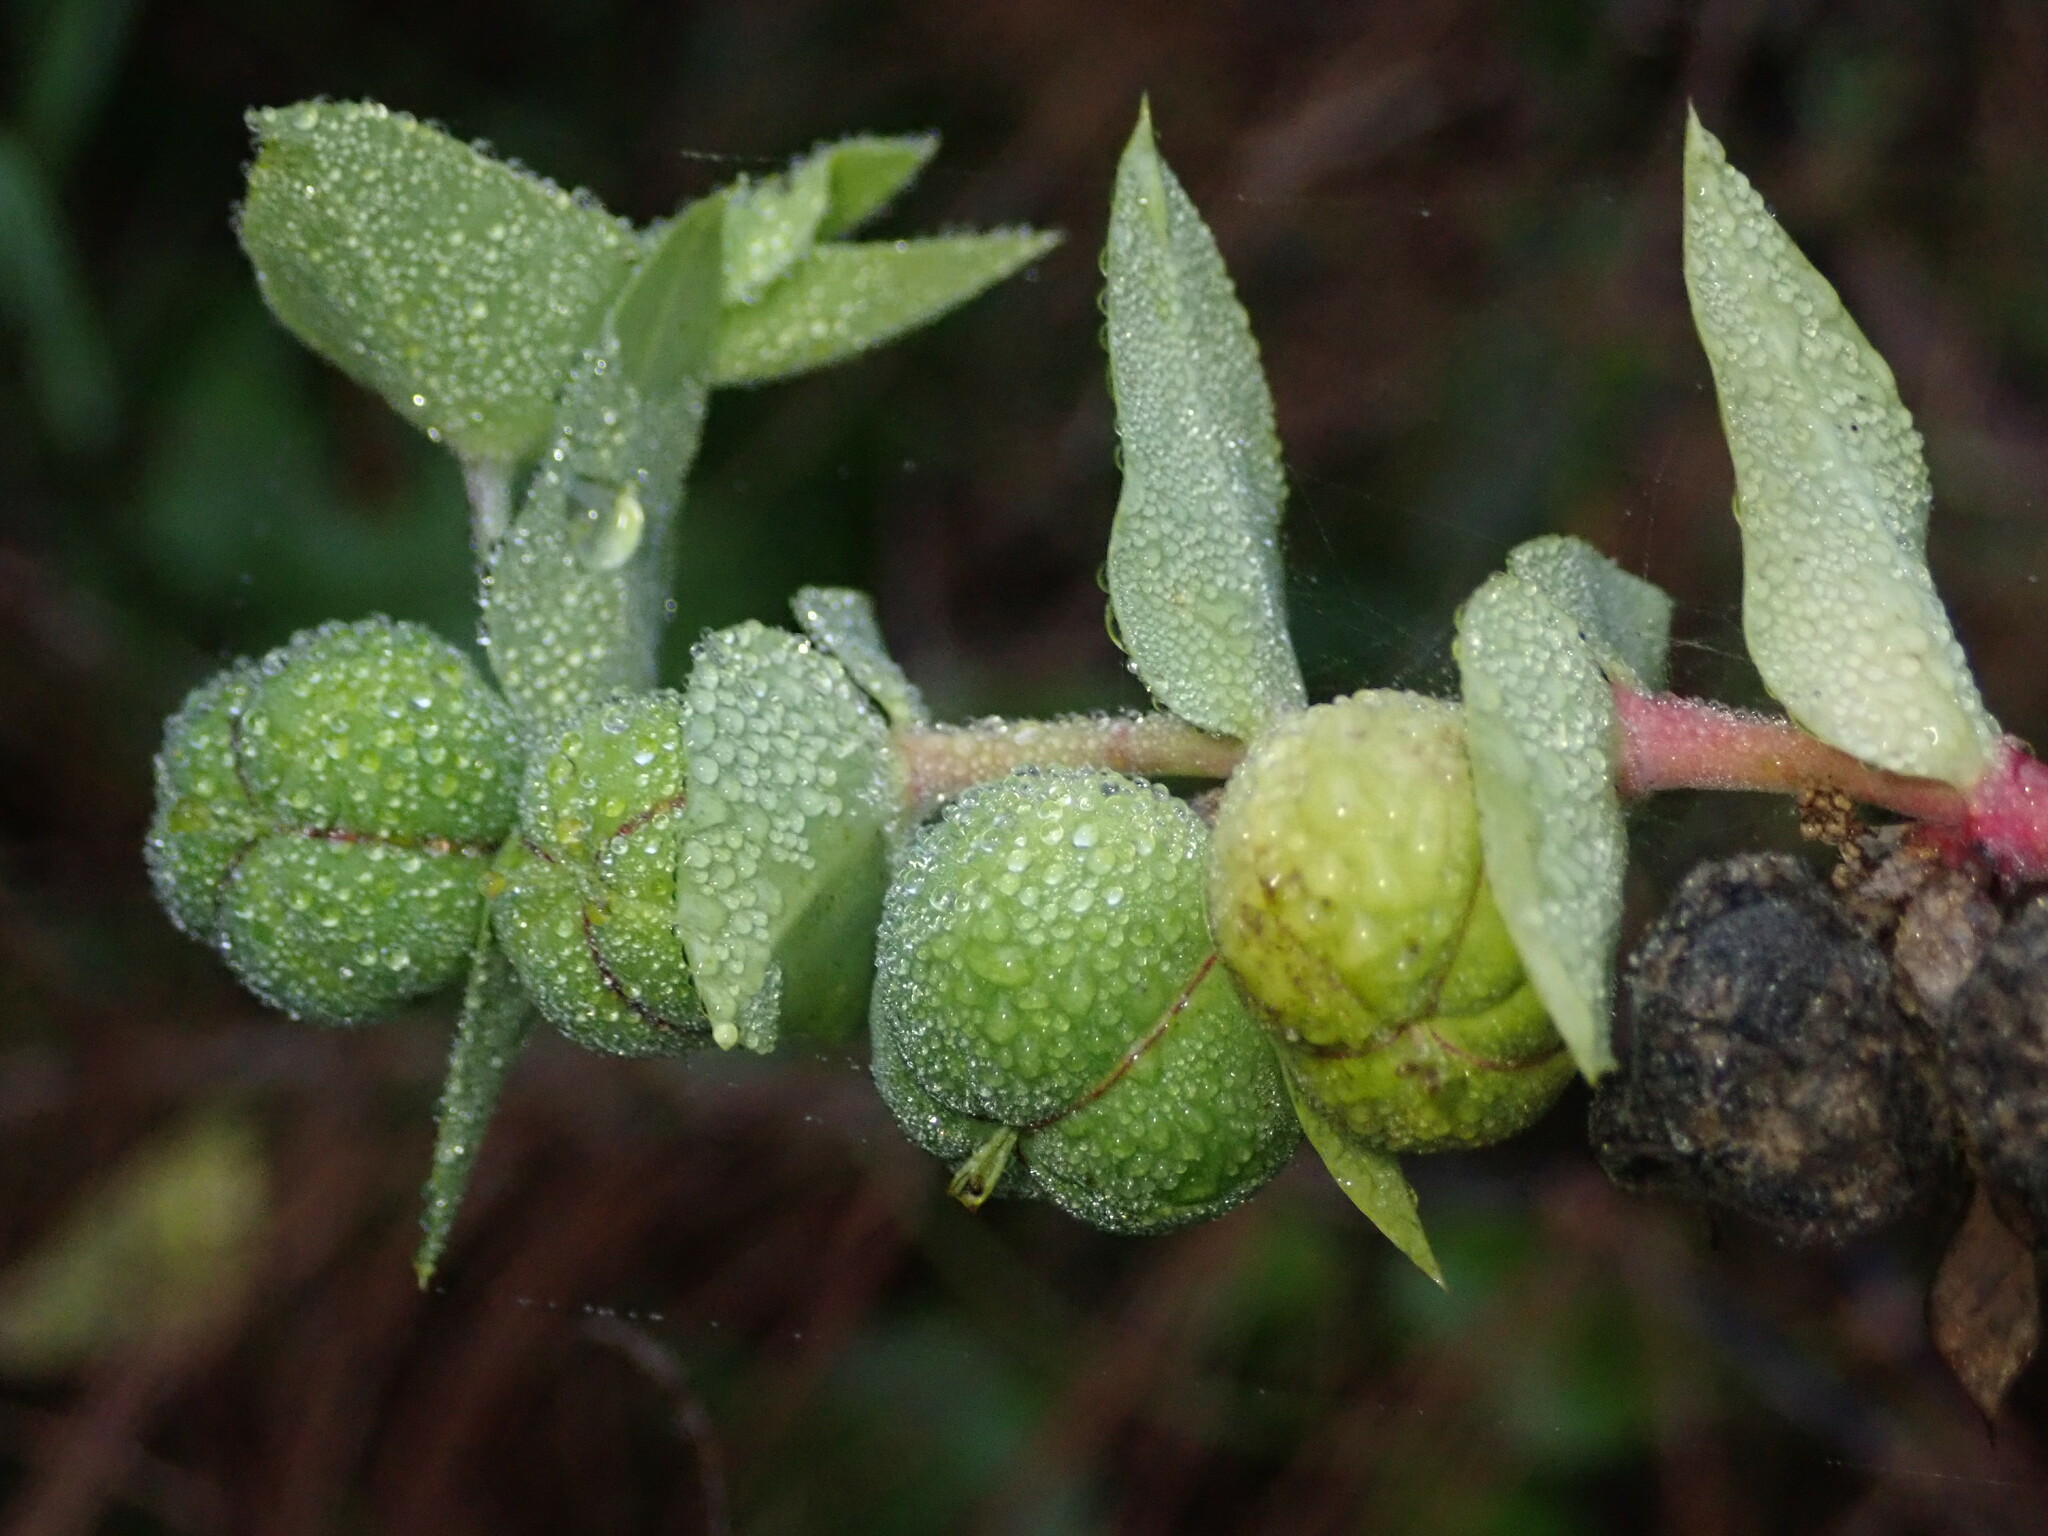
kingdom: Plantae
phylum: Tracheophyta
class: Magnoliopsida
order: Malpighiales
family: Euphorbiaceae
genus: Euphorbia
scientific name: Euphorbia lathyris
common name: Caper spurge
